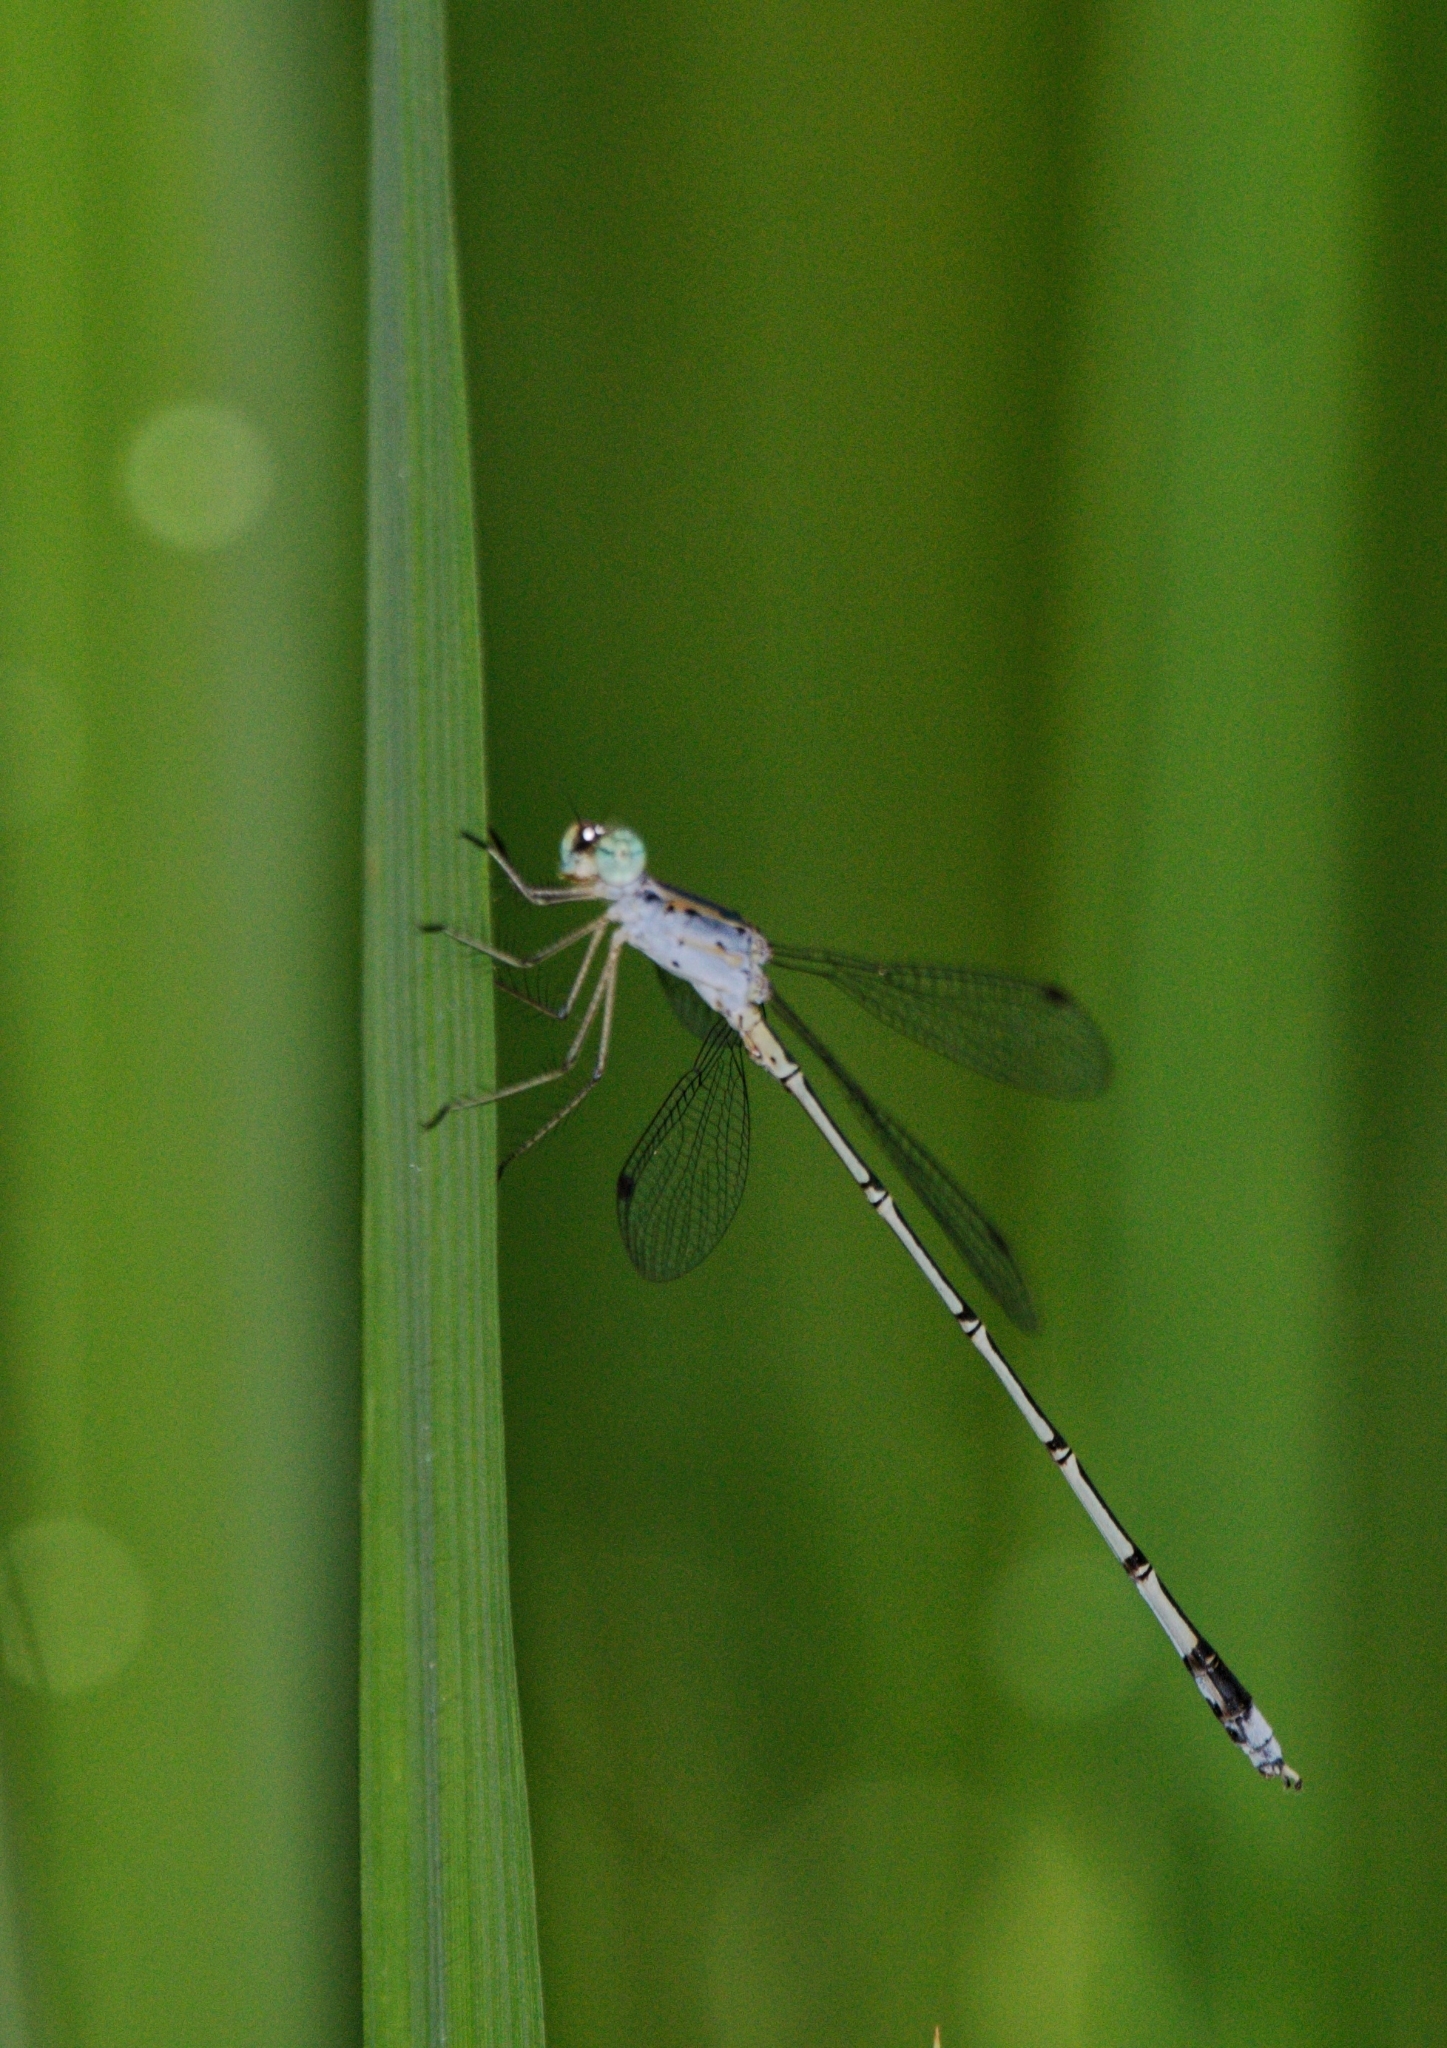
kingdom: Animalia
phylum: Arthropoda
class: Insecta
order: Odonata
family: Lestidae
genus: Lestes
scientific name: Lestes elatus
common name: Emerald spreadwing
